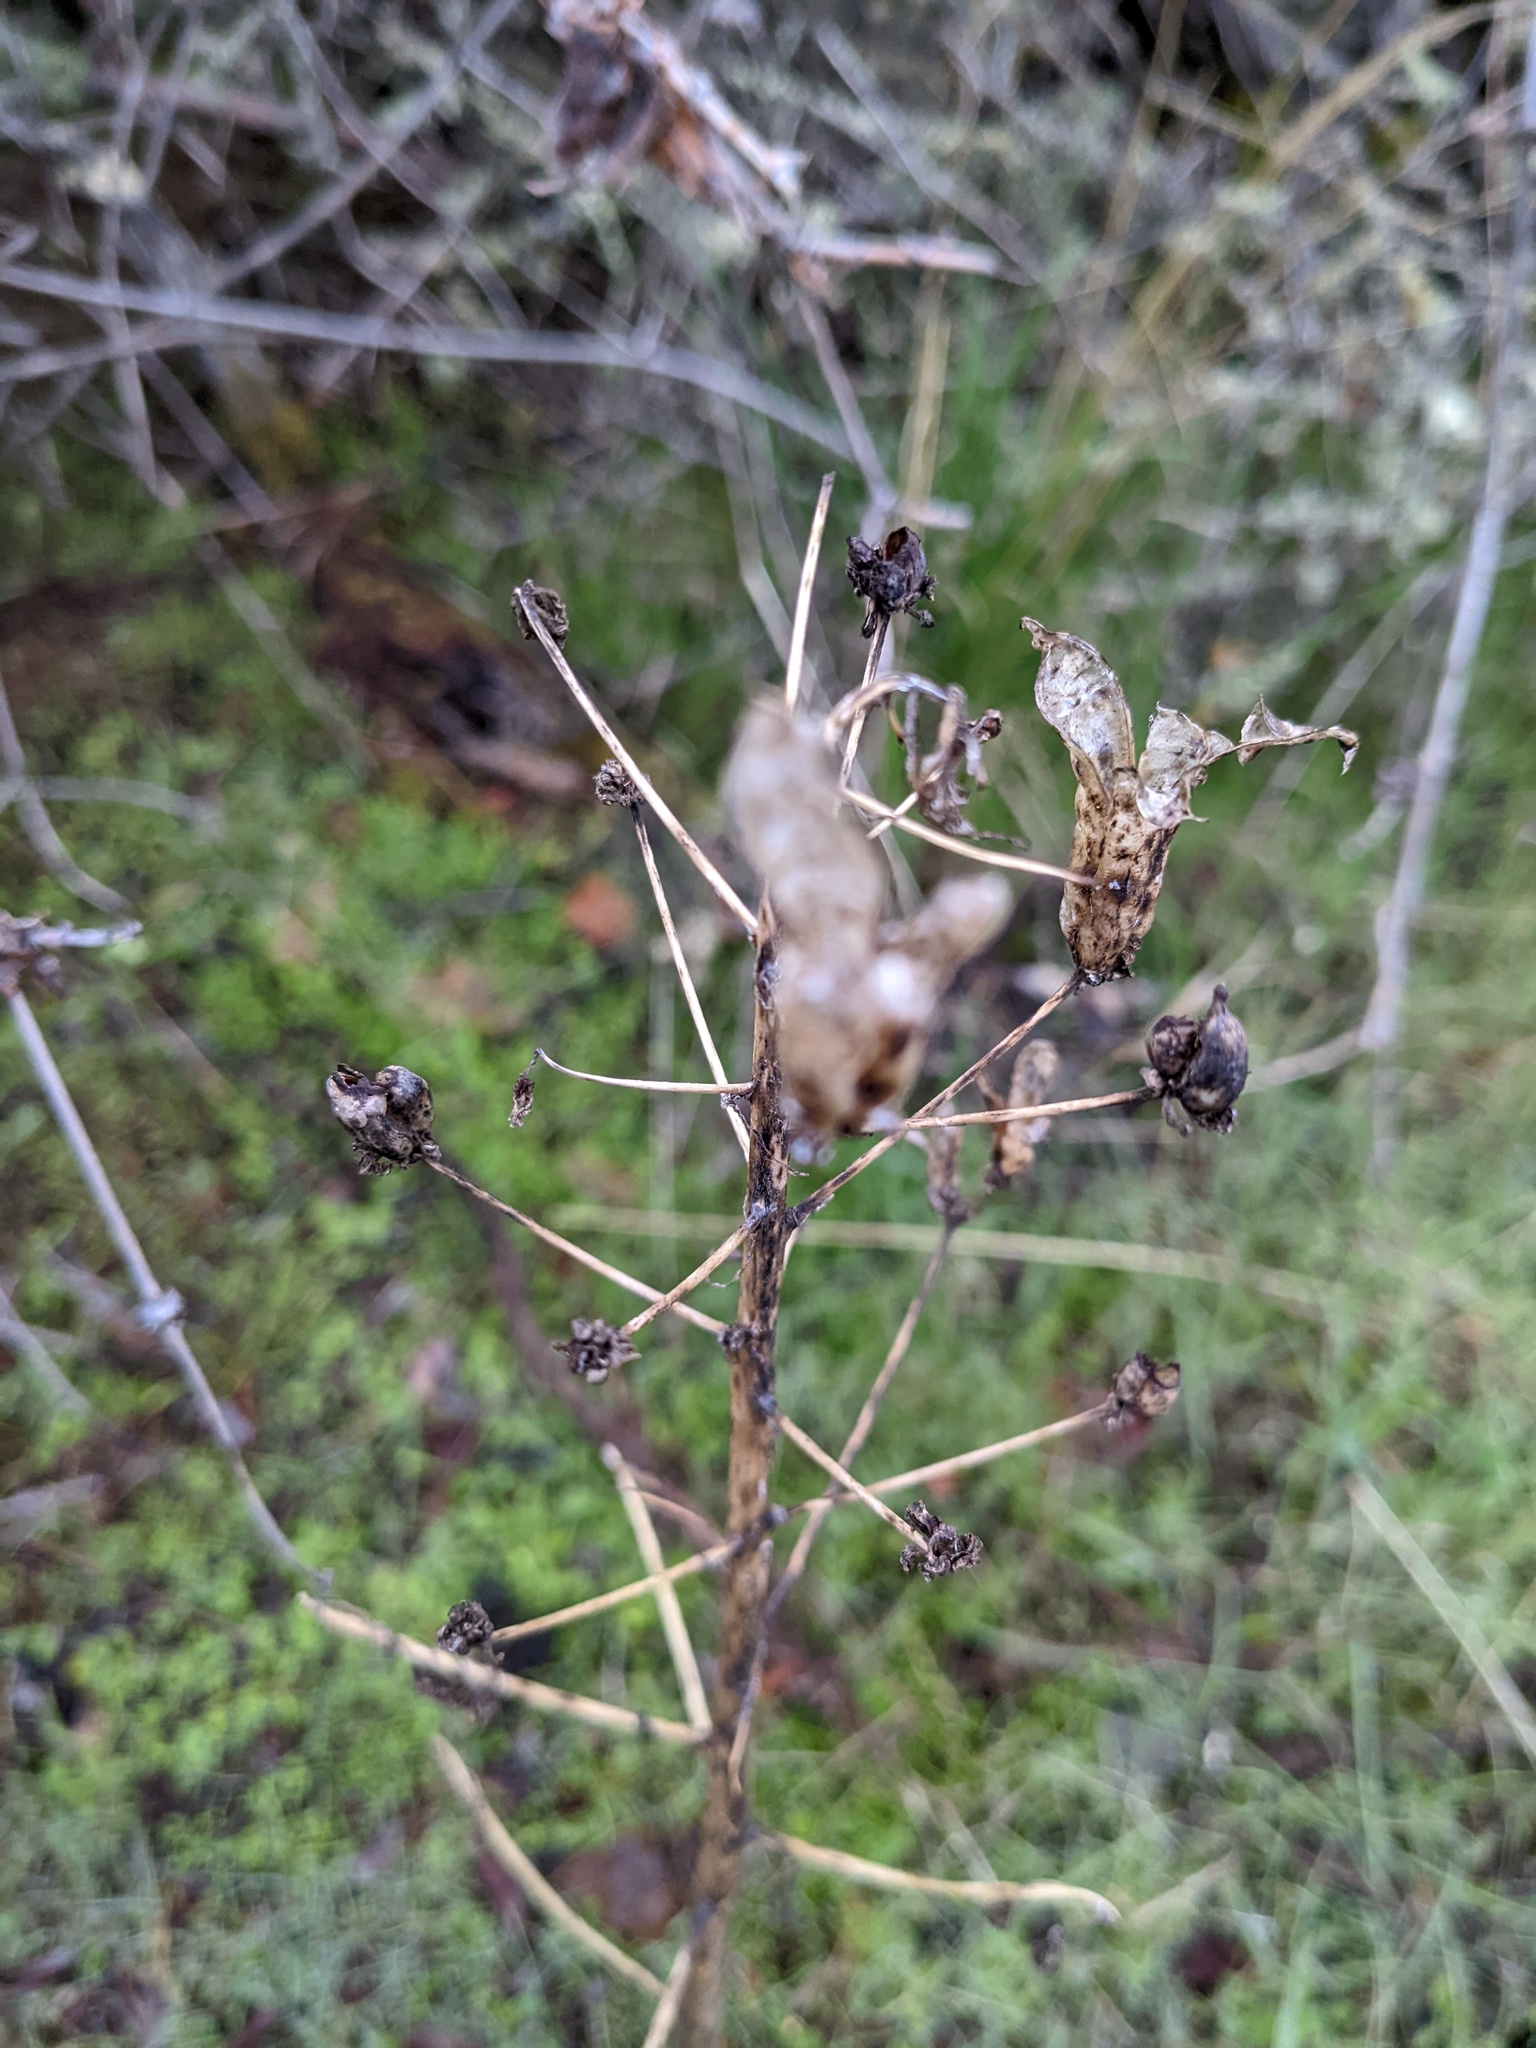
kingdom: Plantae
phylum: Tracheophyta
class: Liliopsida
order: Liliales
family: Melanthiaceae
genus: Toxicoscordion
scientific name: Toxicoscordion fremontii
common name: Fremont's death camas
